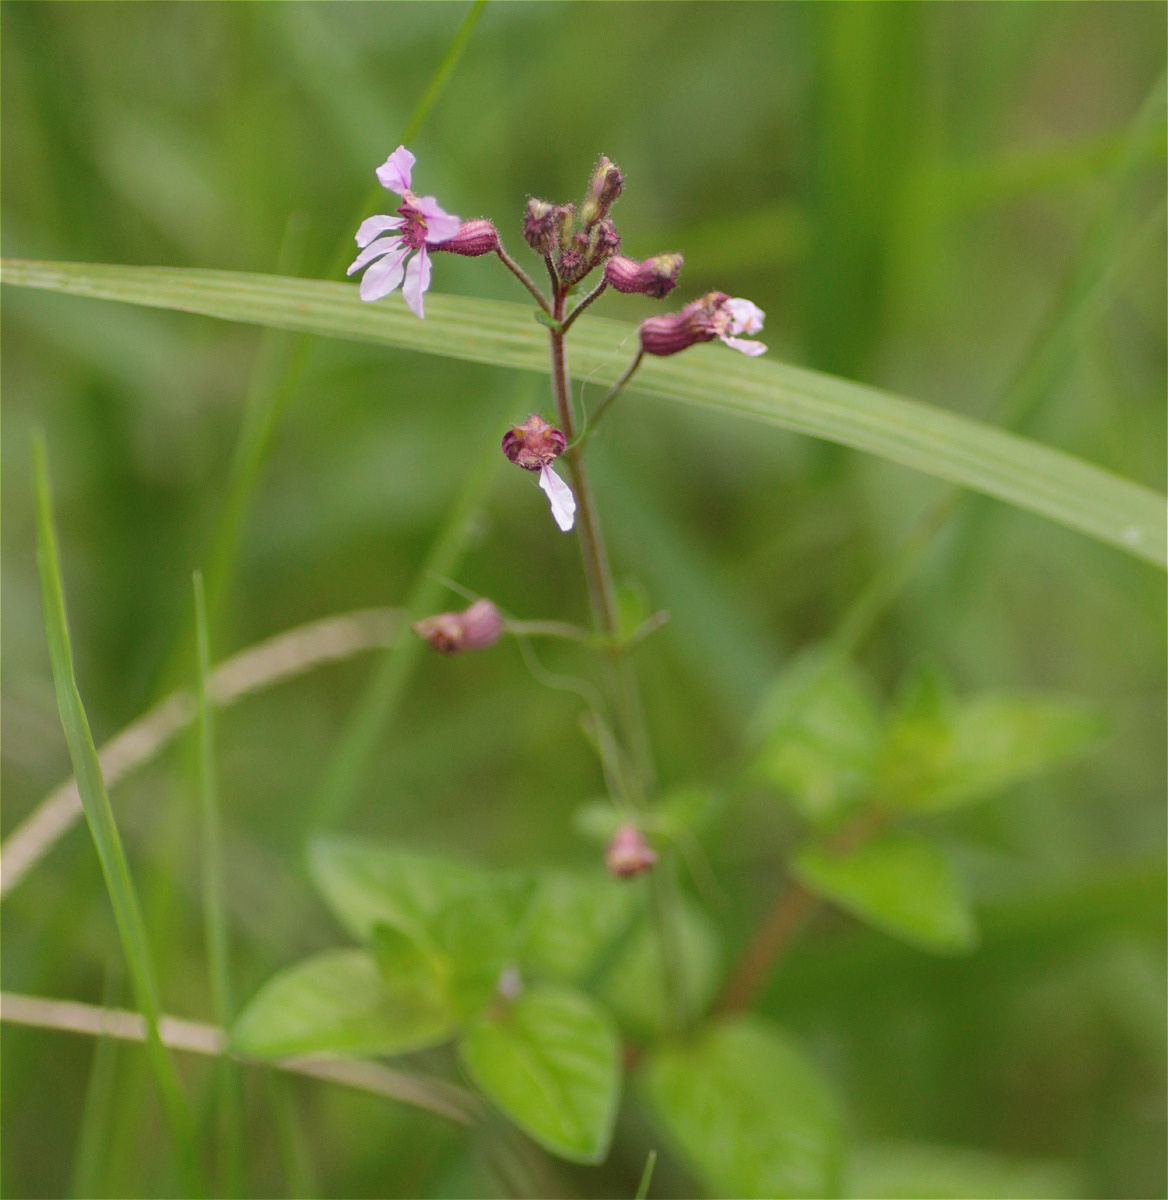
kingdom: Plantae
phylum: Tracheophyta
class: Magnoliopsida
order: Myrtales
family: Lythraceae
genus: Cuphea
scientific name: Cuphea racemosa
